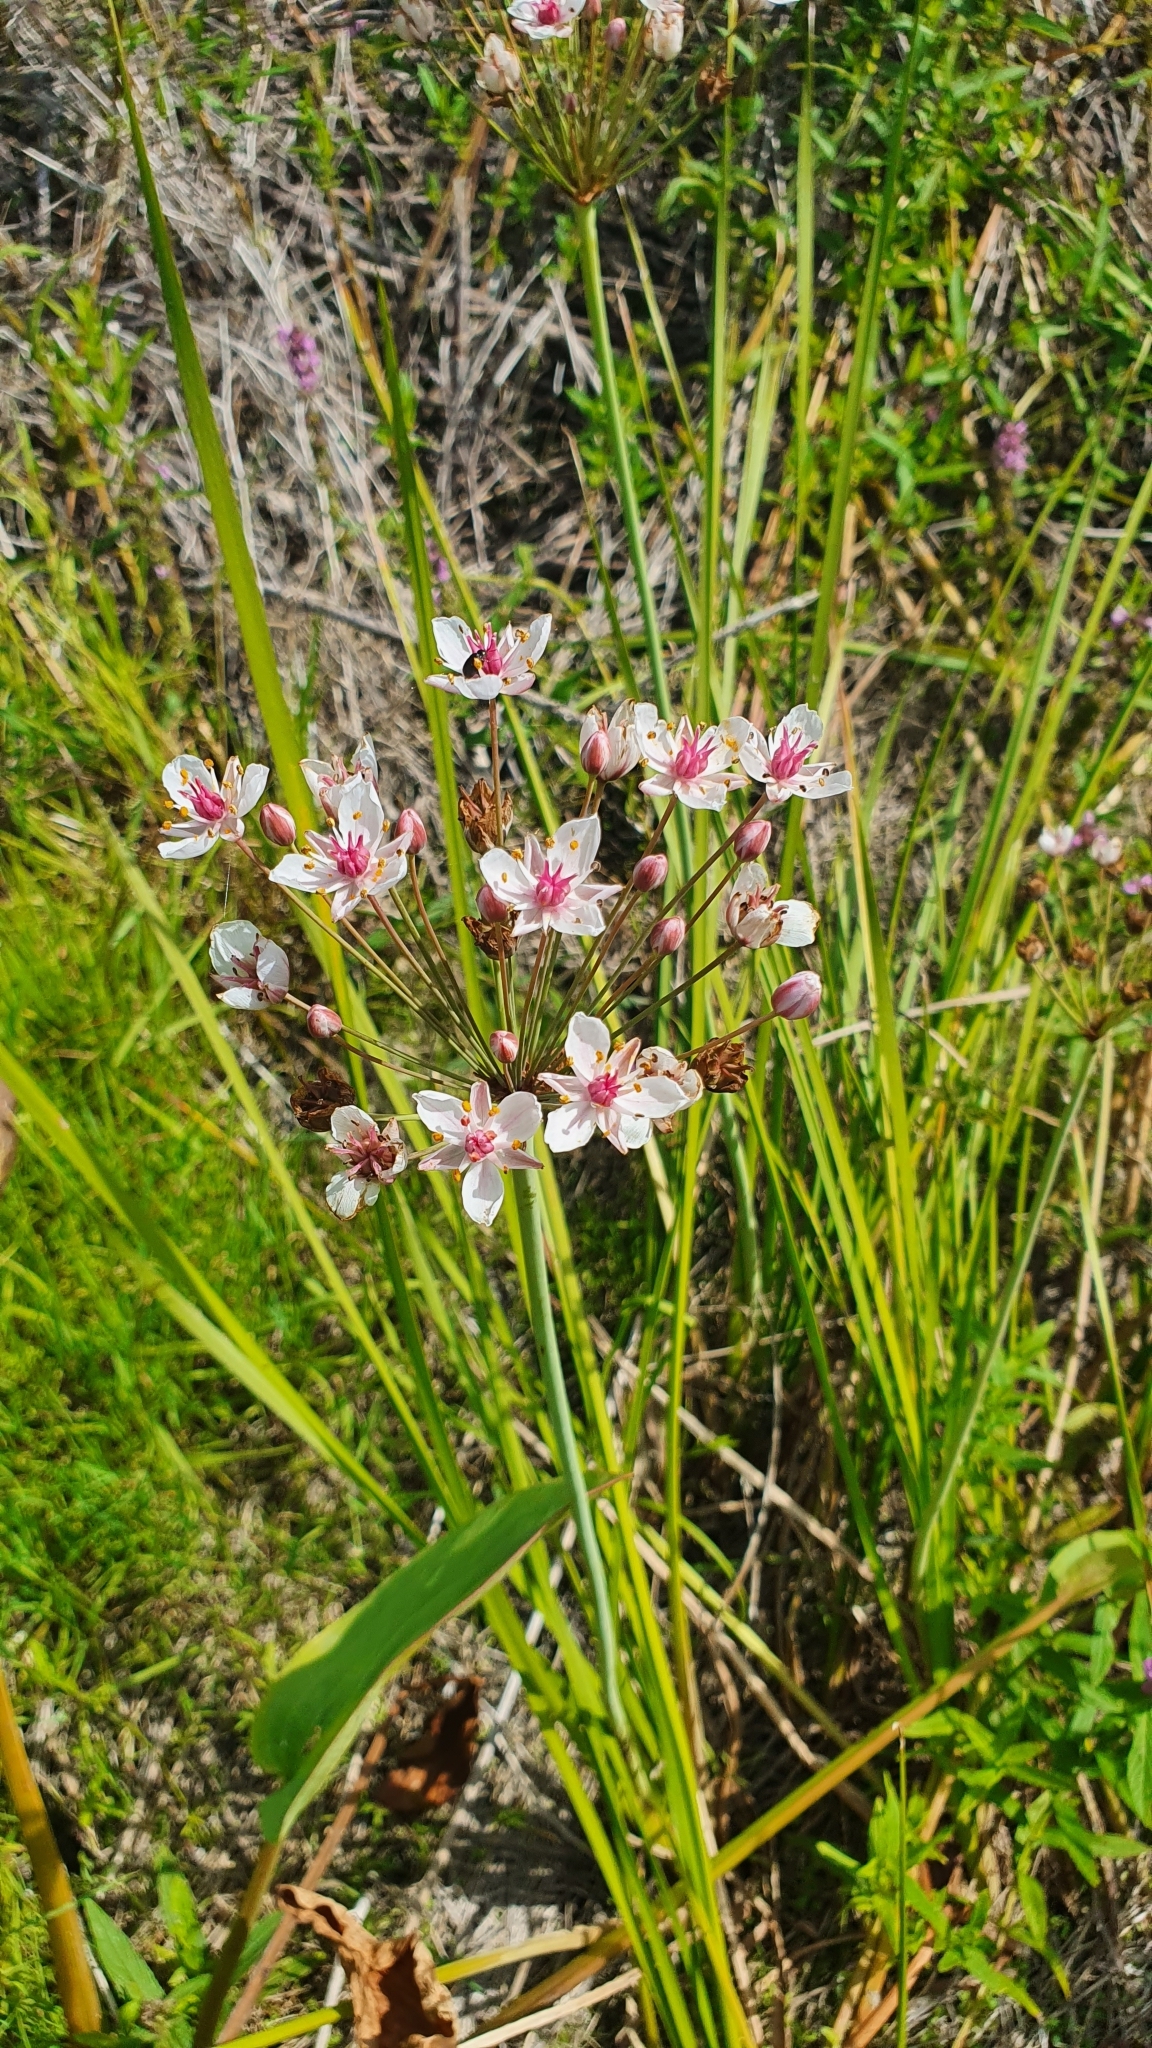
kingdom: Plantae
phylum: Tracheophyta
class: Liliopsida
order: Alismatales
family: Butomaceae
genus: Butomus
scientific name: Butomus umbellatus
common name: Flowering-rush
